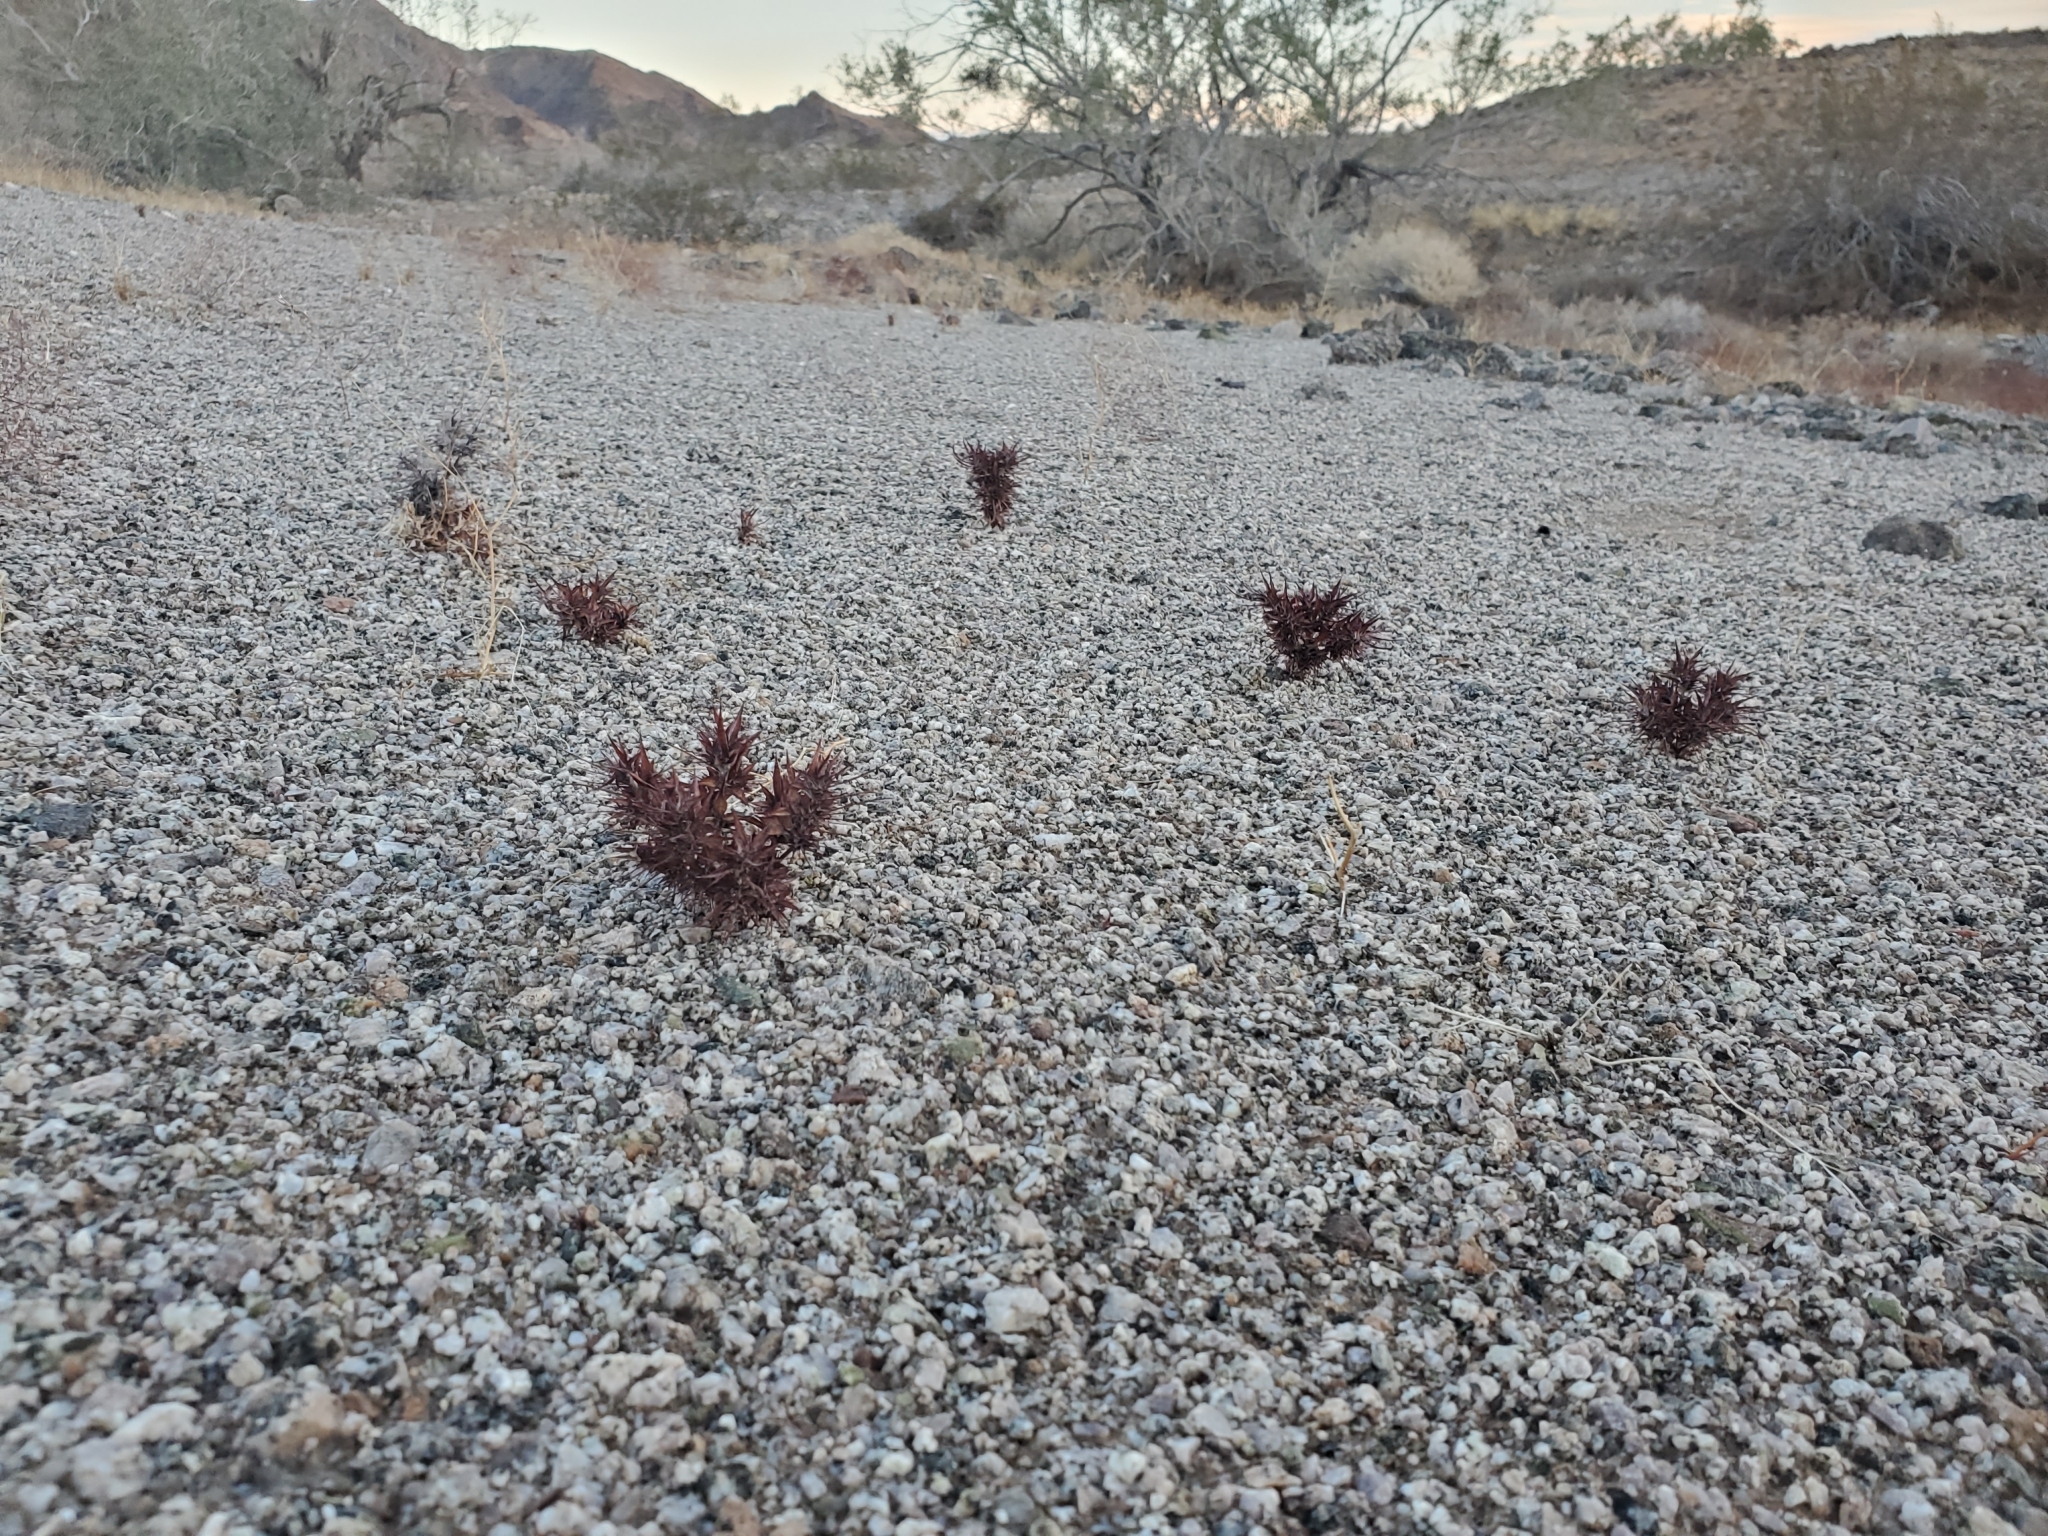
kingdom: Plantae
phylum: Tracheophyta
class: Magnoliopsida
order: Caryophyllales
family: Polygonaceae
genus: Chorizanthe
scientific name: Chorizanthe rigida
